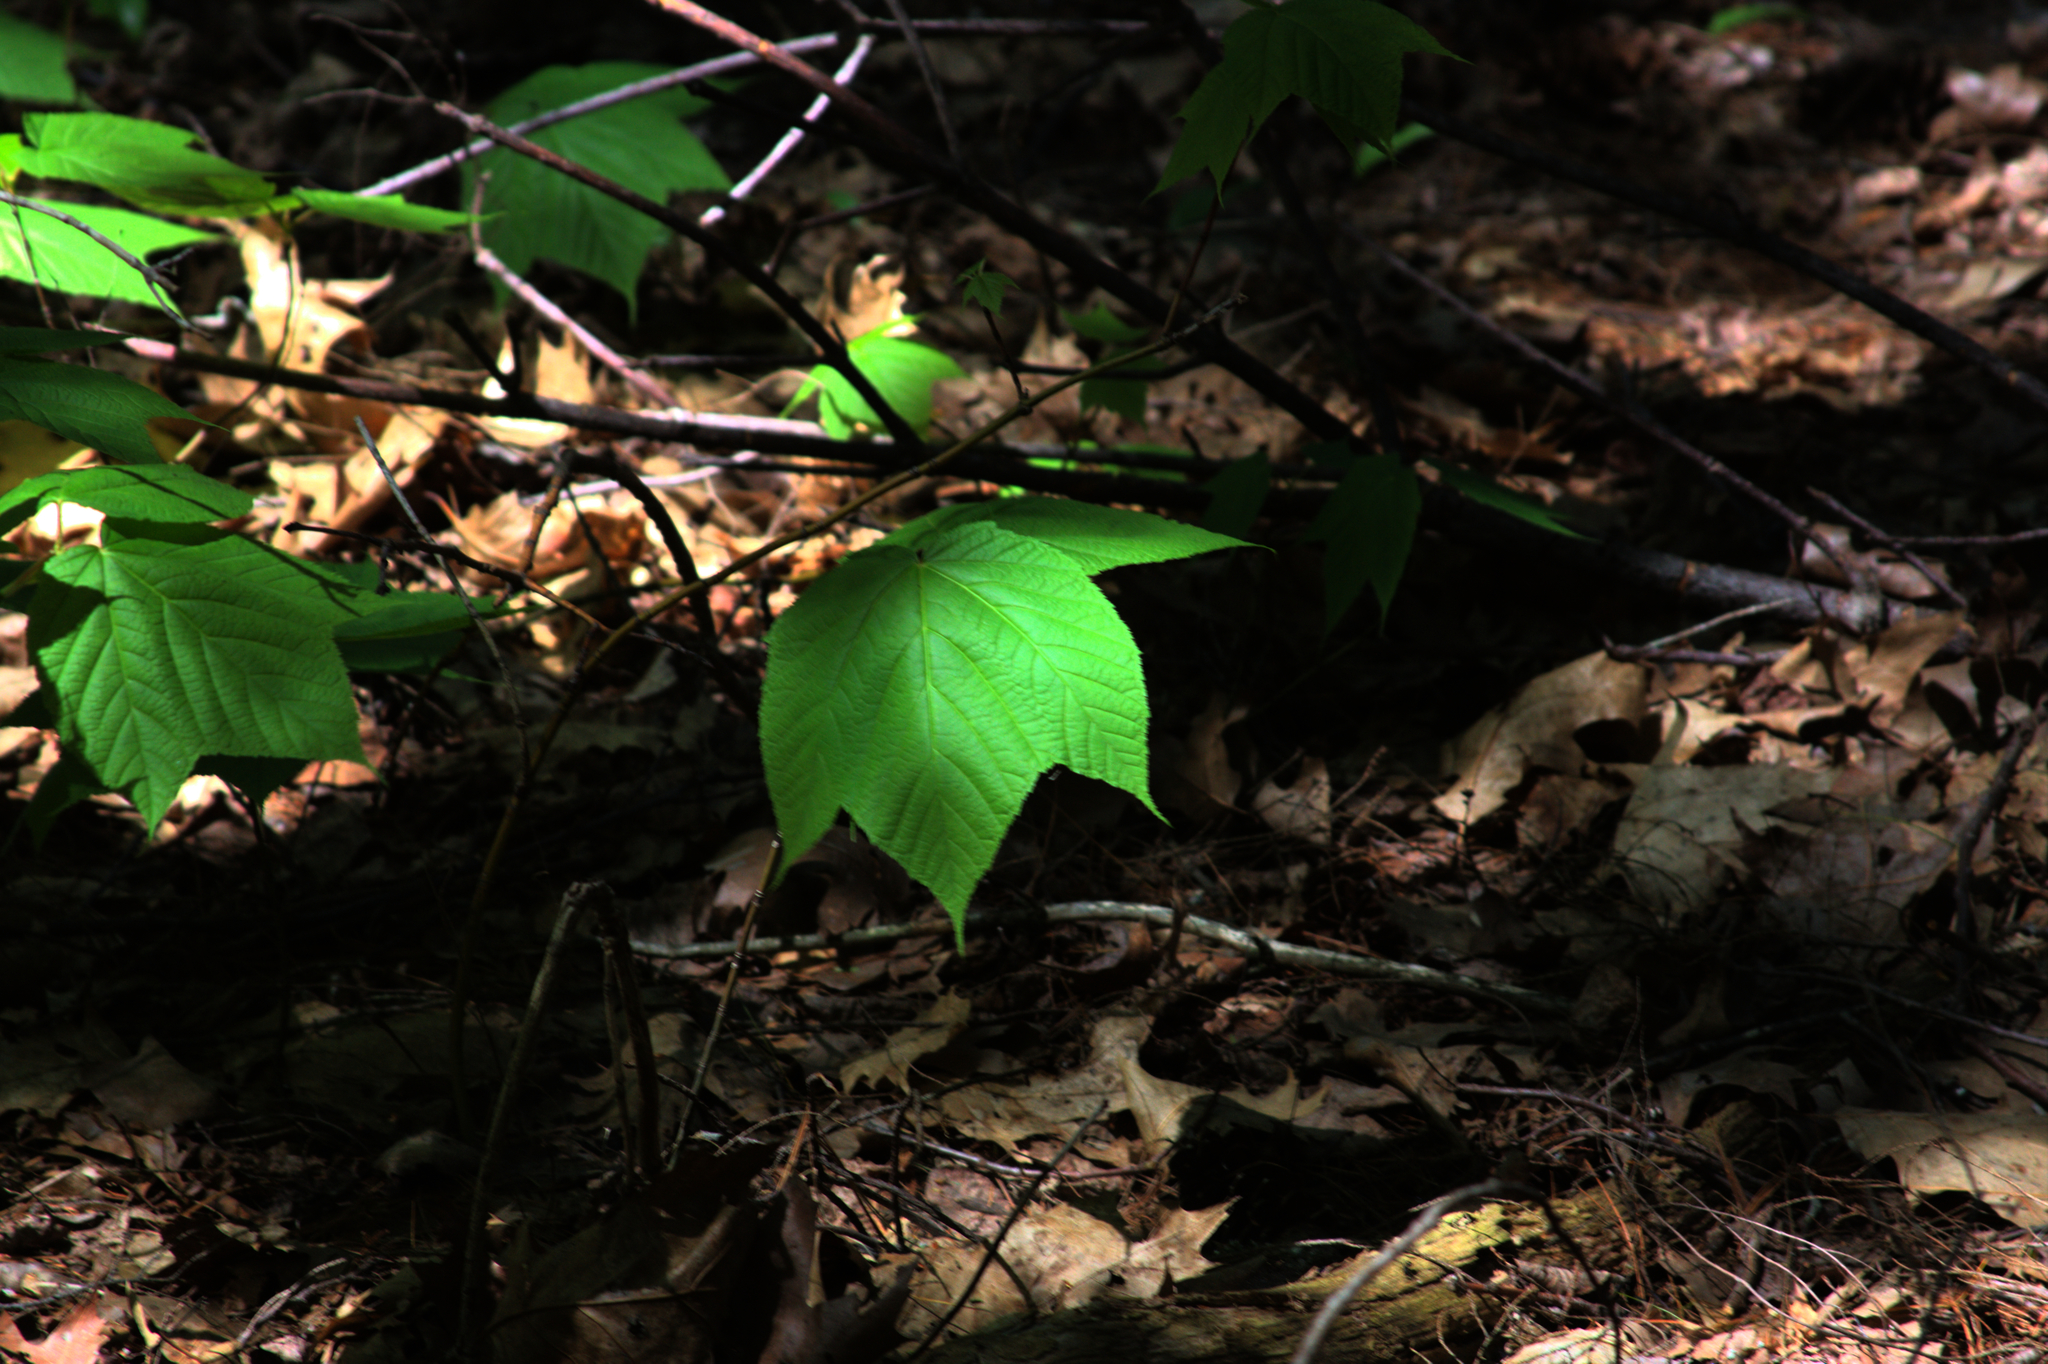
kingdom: Plantae
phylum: Tracheophyta
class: Magnoliopsida
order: Sapindales
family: Sapindaceae
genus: Acer
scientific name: Acer pensylvanicum
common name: Moosewood
